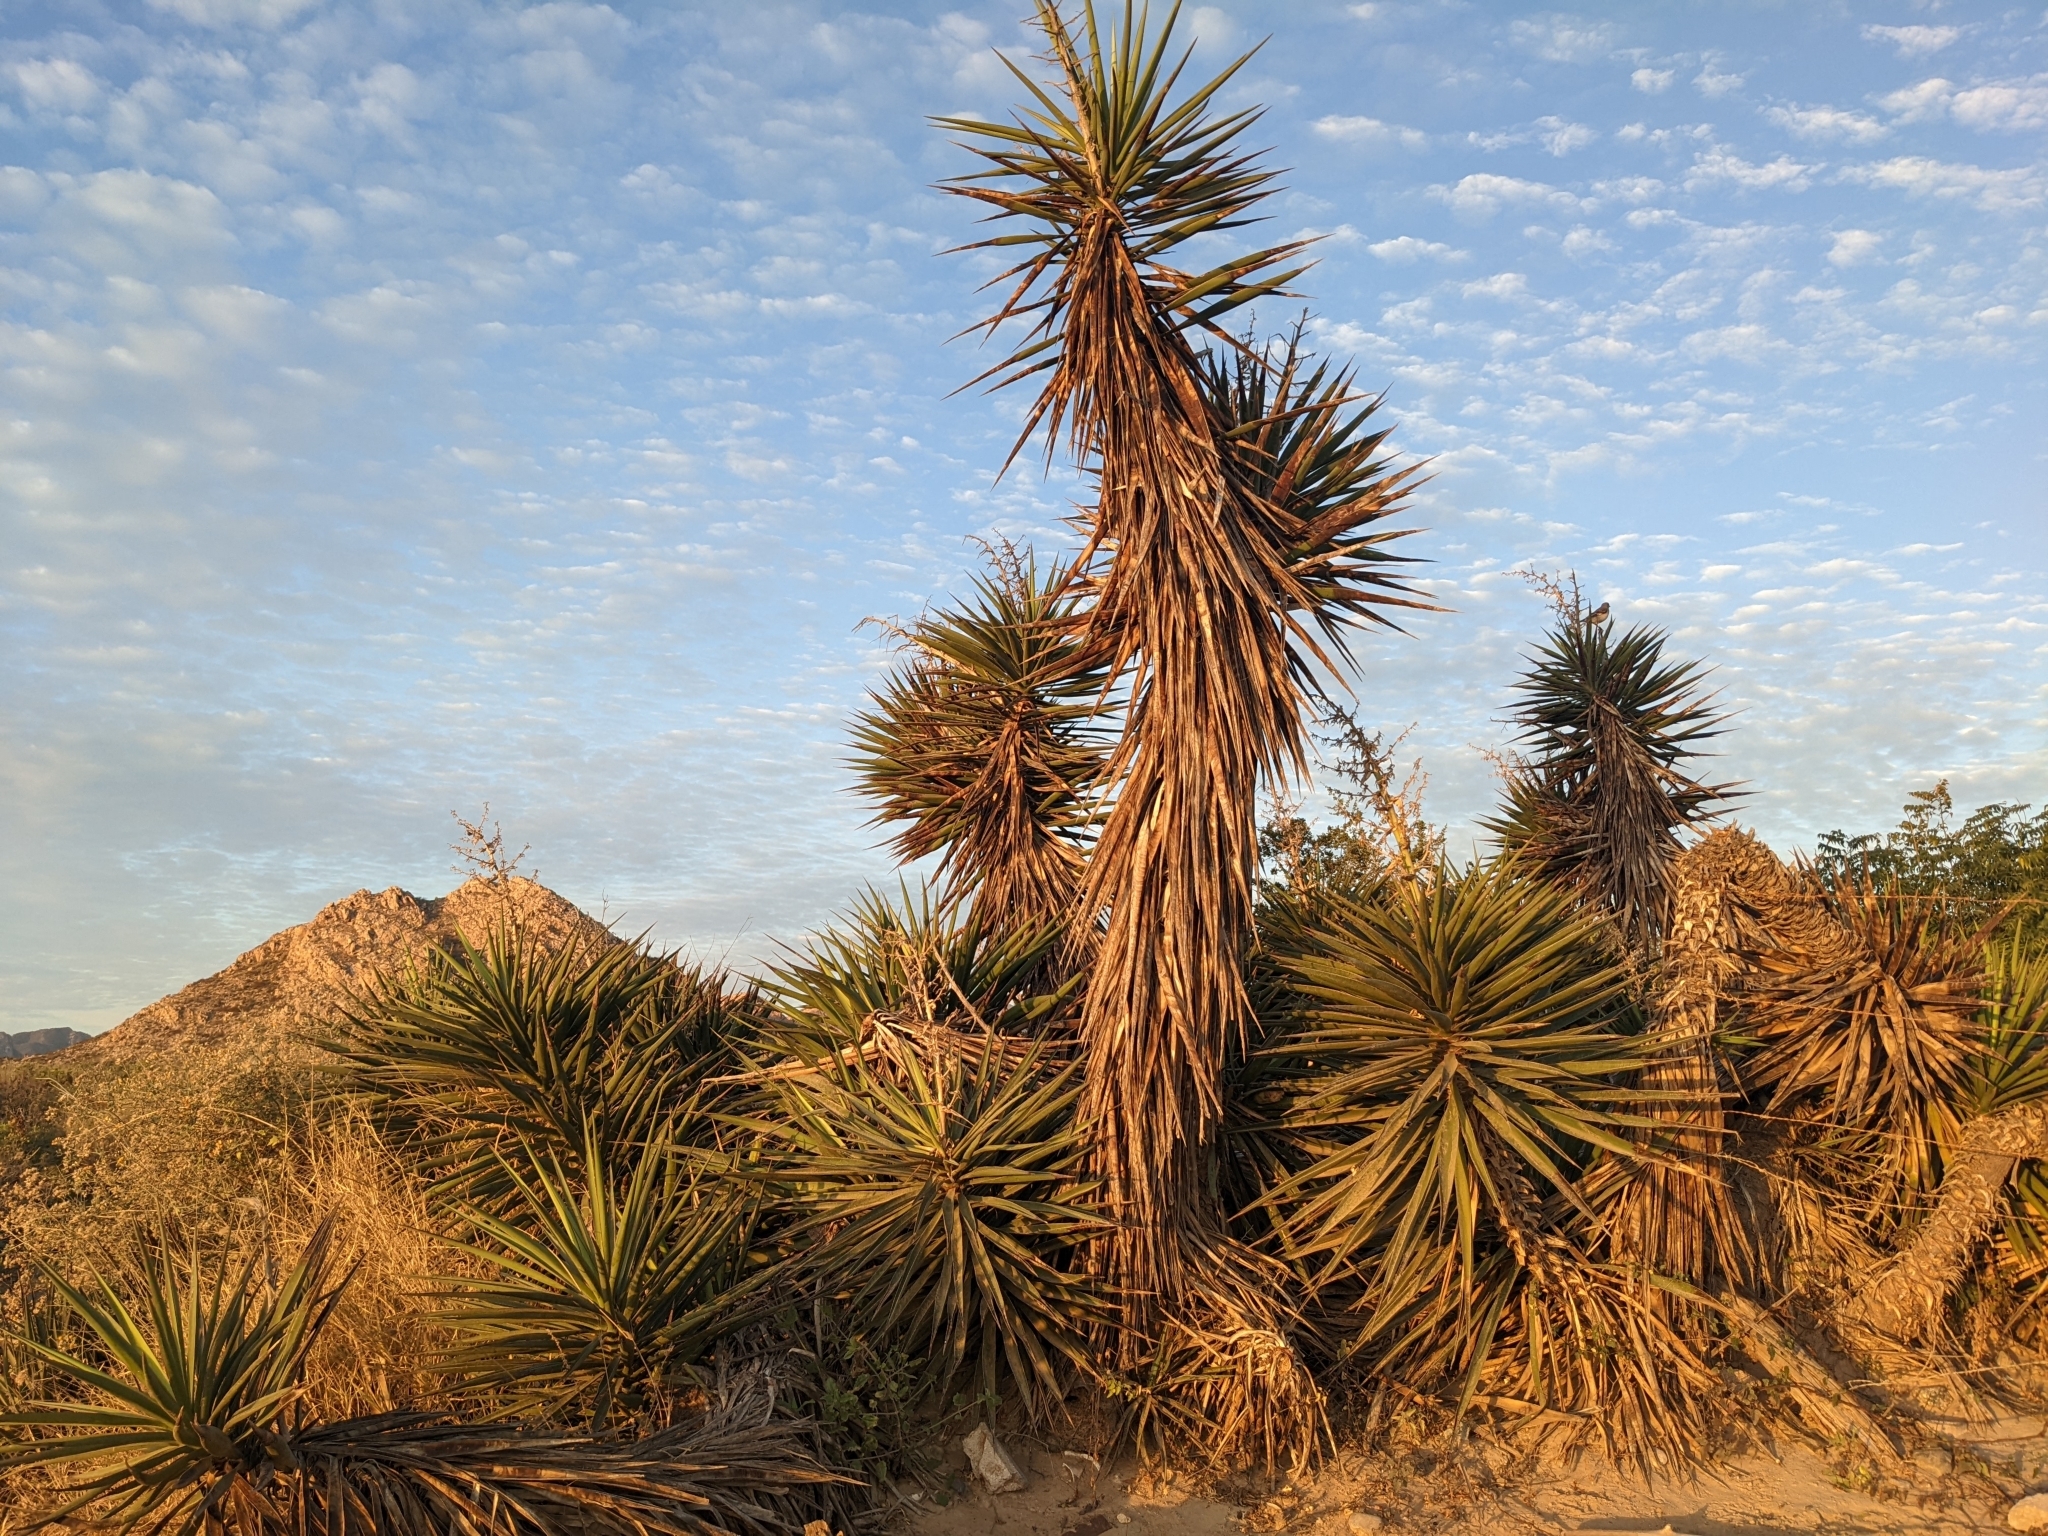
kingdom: Plantae
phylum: Tracheophyta
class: Liliopsida
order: Asparagales
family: Asparagaceae
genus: Yucca
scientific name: Yucca capensis
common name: Cape region yucca
